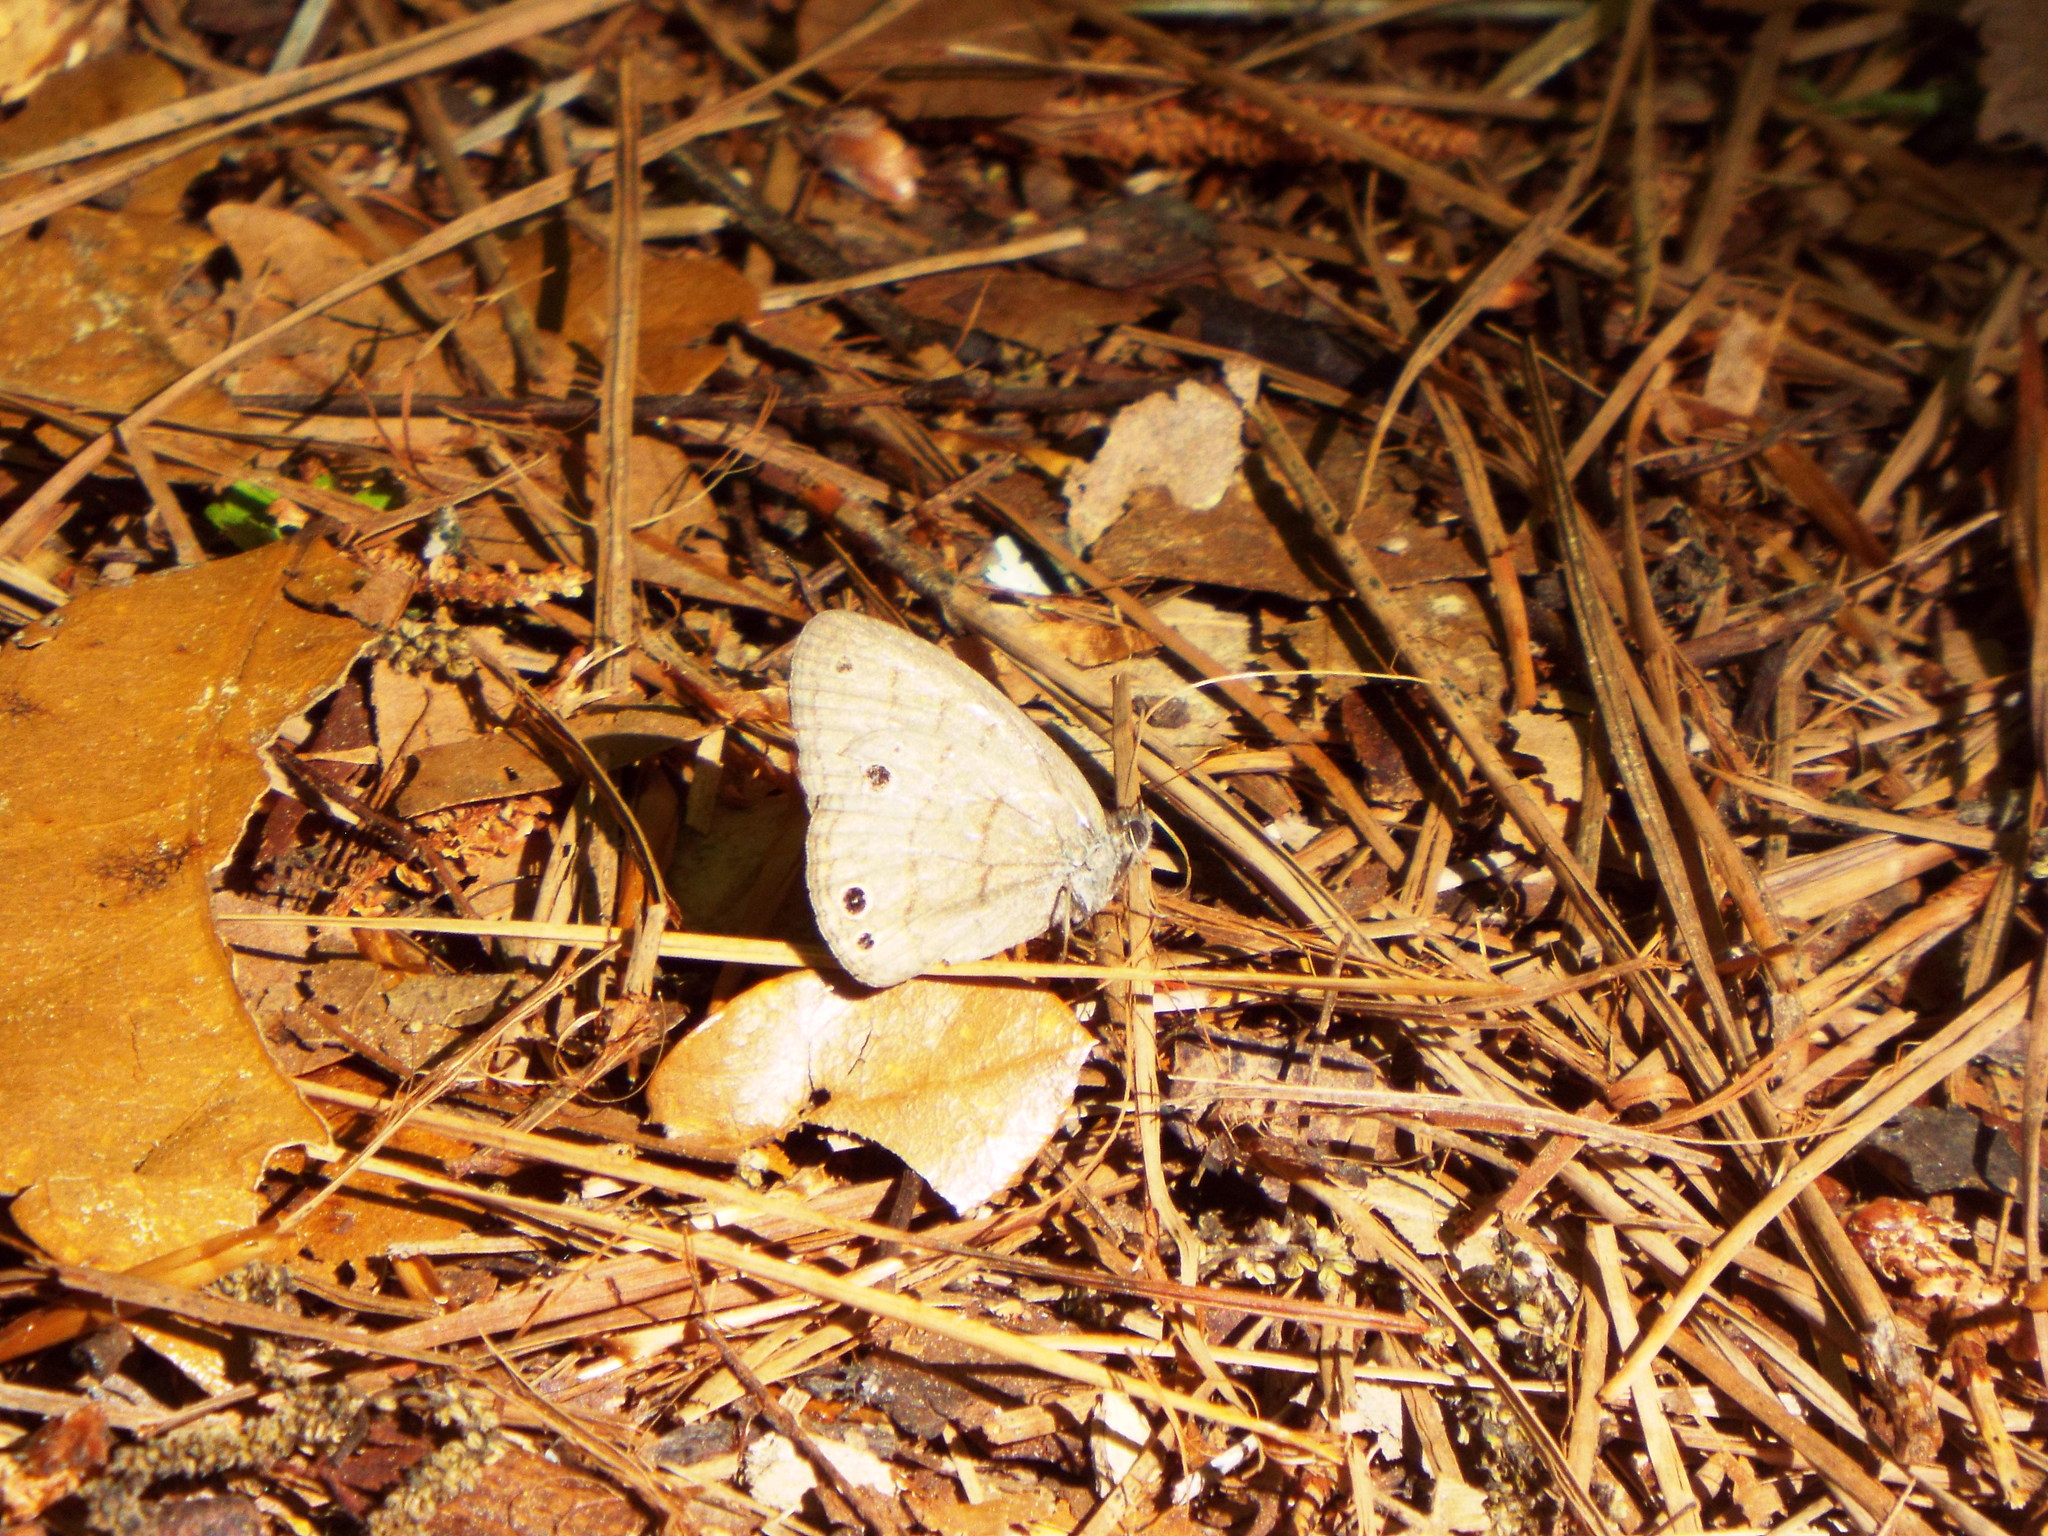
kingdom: Animalia
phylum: Arthropoda
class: Insecta
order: Lepidoptera
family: Nymphalidae
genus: Hermeuptychia
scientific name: Hermeuptychia hermes
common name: Hermes satyr
